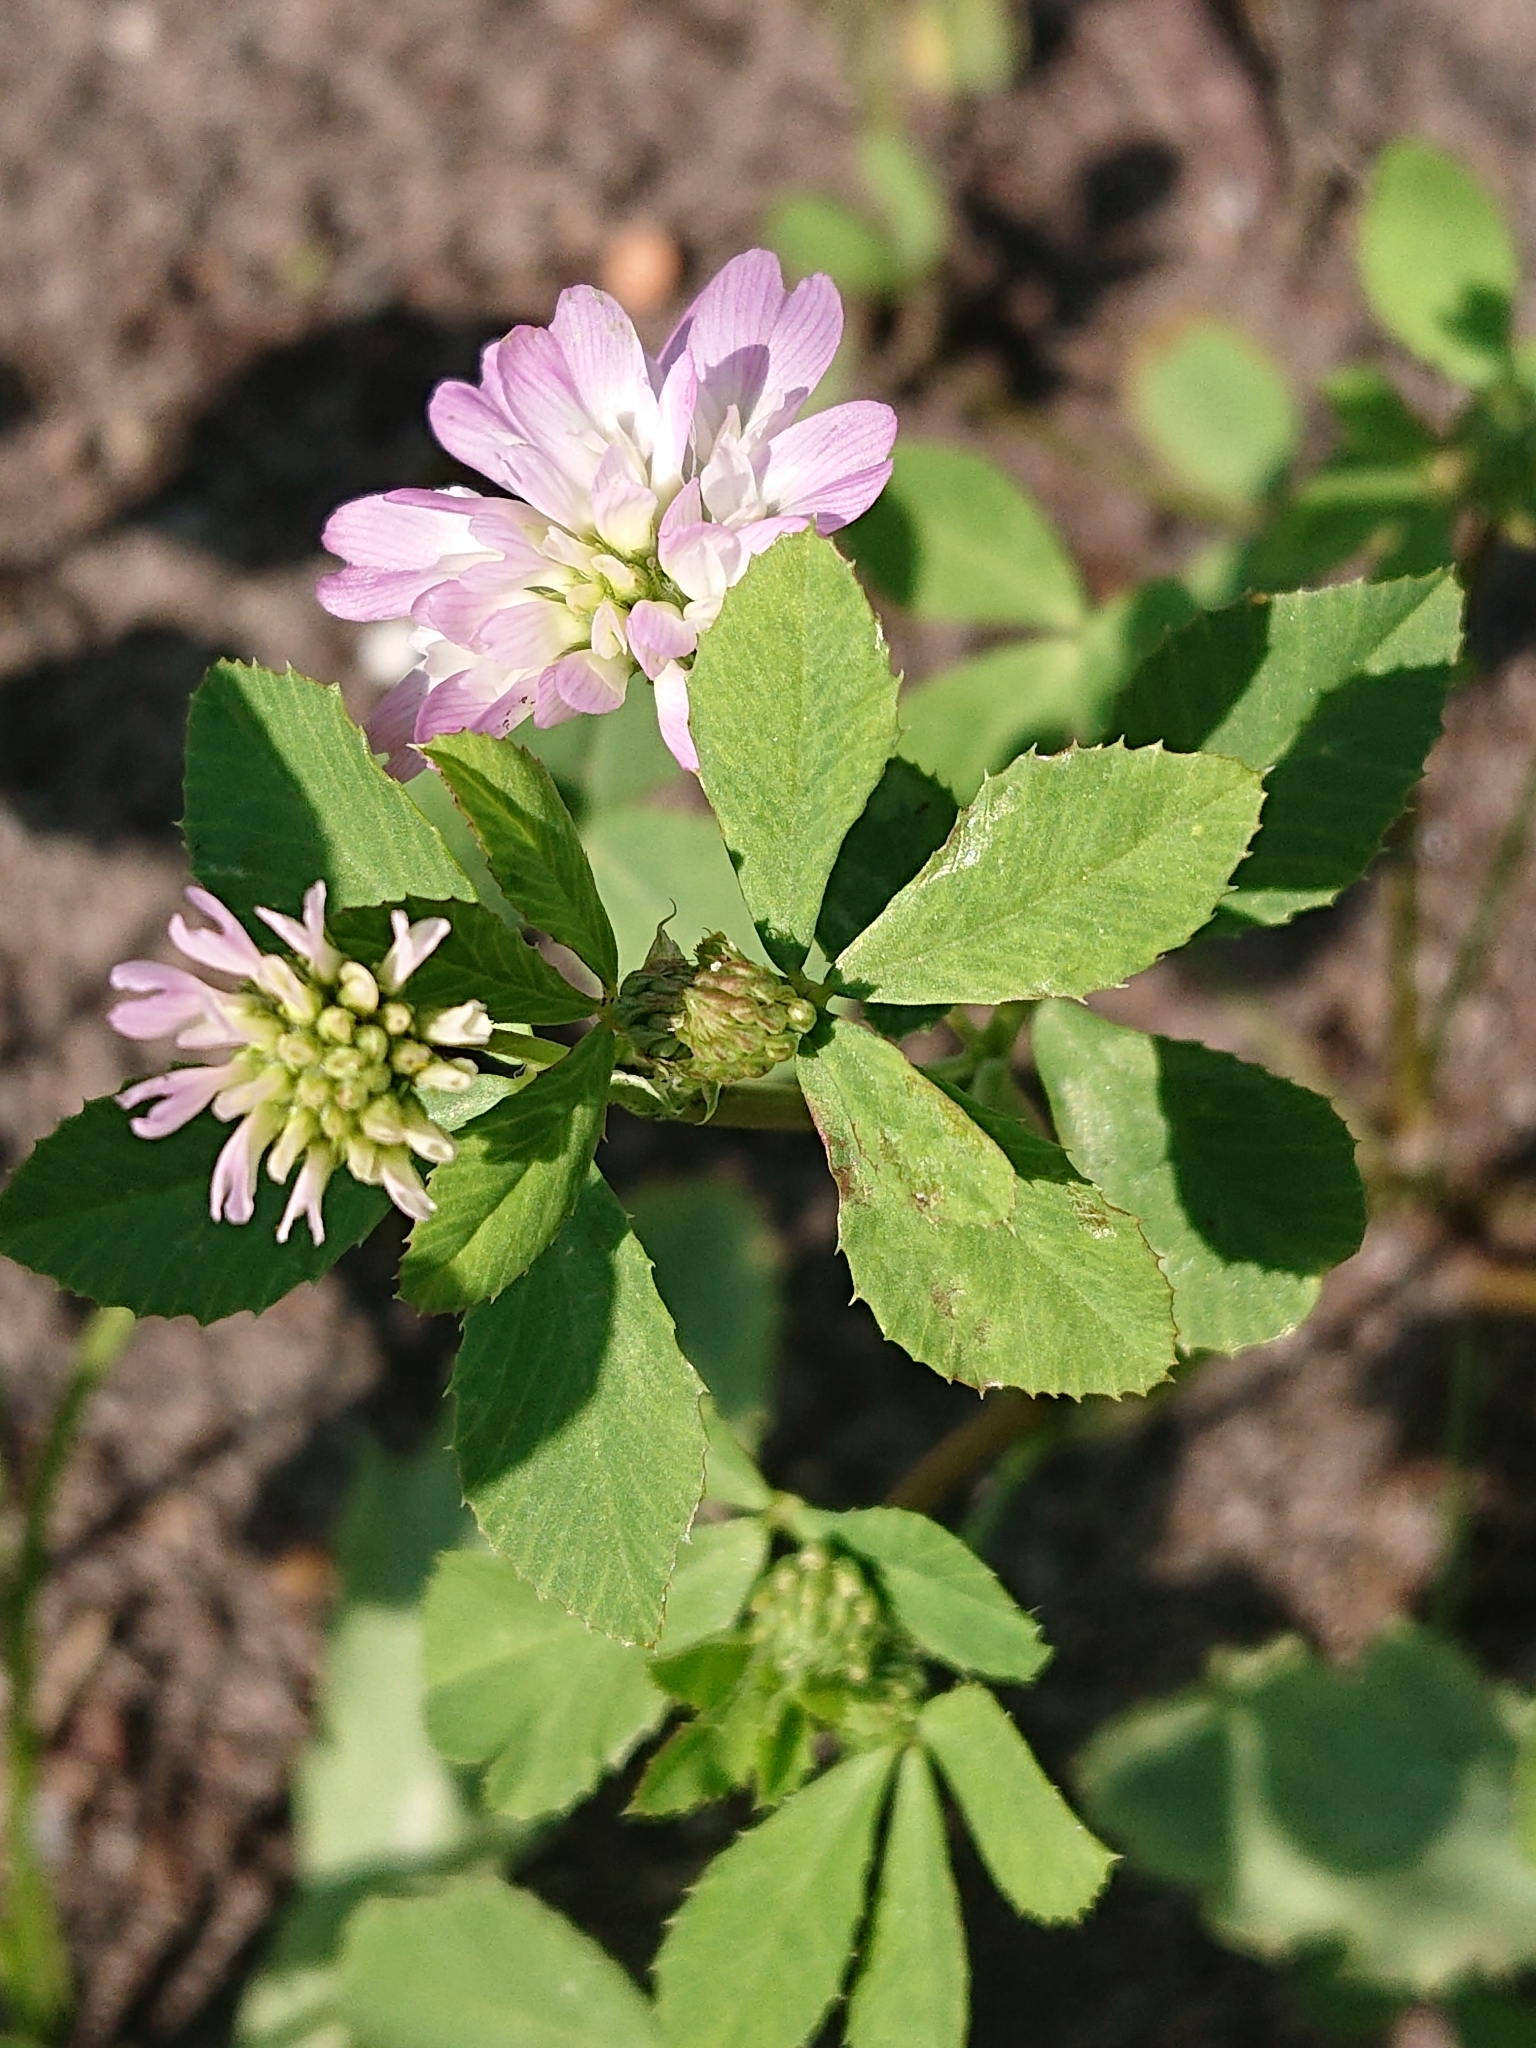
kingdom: Plantae
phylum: Tracheophyta
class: Magnoliopsida
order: Fabales
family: Fabaceae
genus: Trifolium
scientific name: Trifolium resupinatum
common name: Reversed clover
